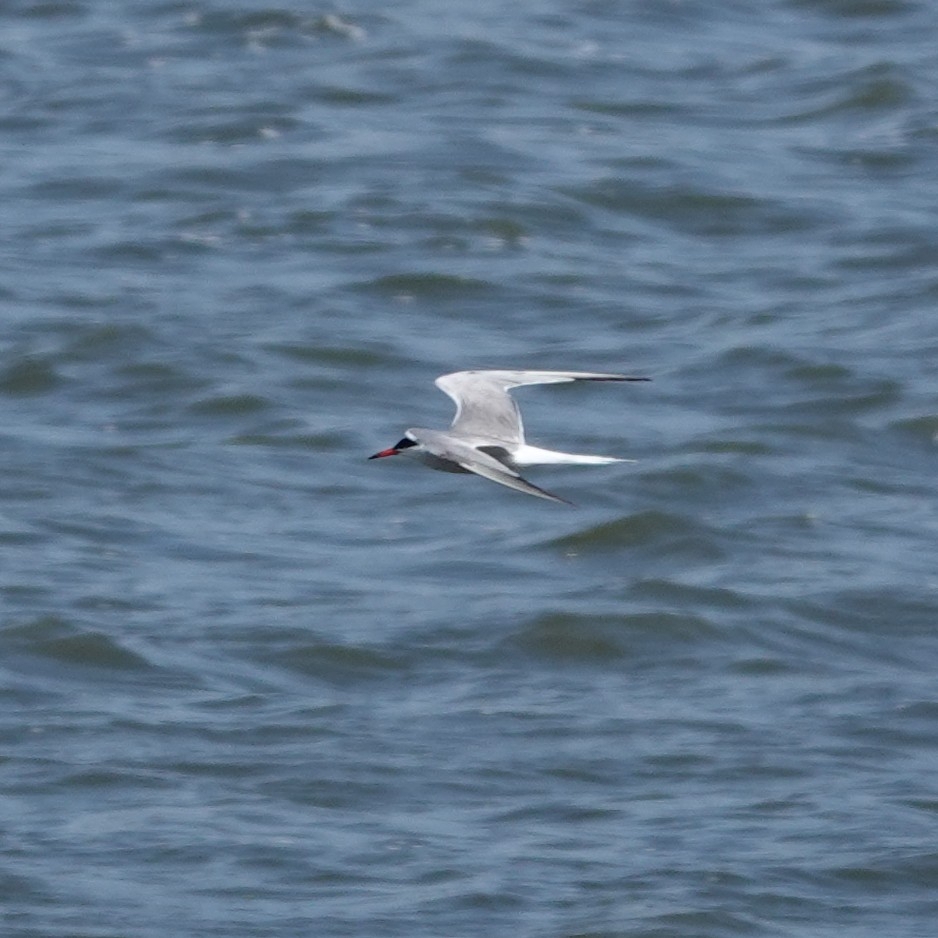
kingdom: Animalia
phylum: Chordata
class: Aves
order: Charadriiformes
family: Laridae
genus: Sterna
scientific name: Sterna hirundo
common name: Common tern
